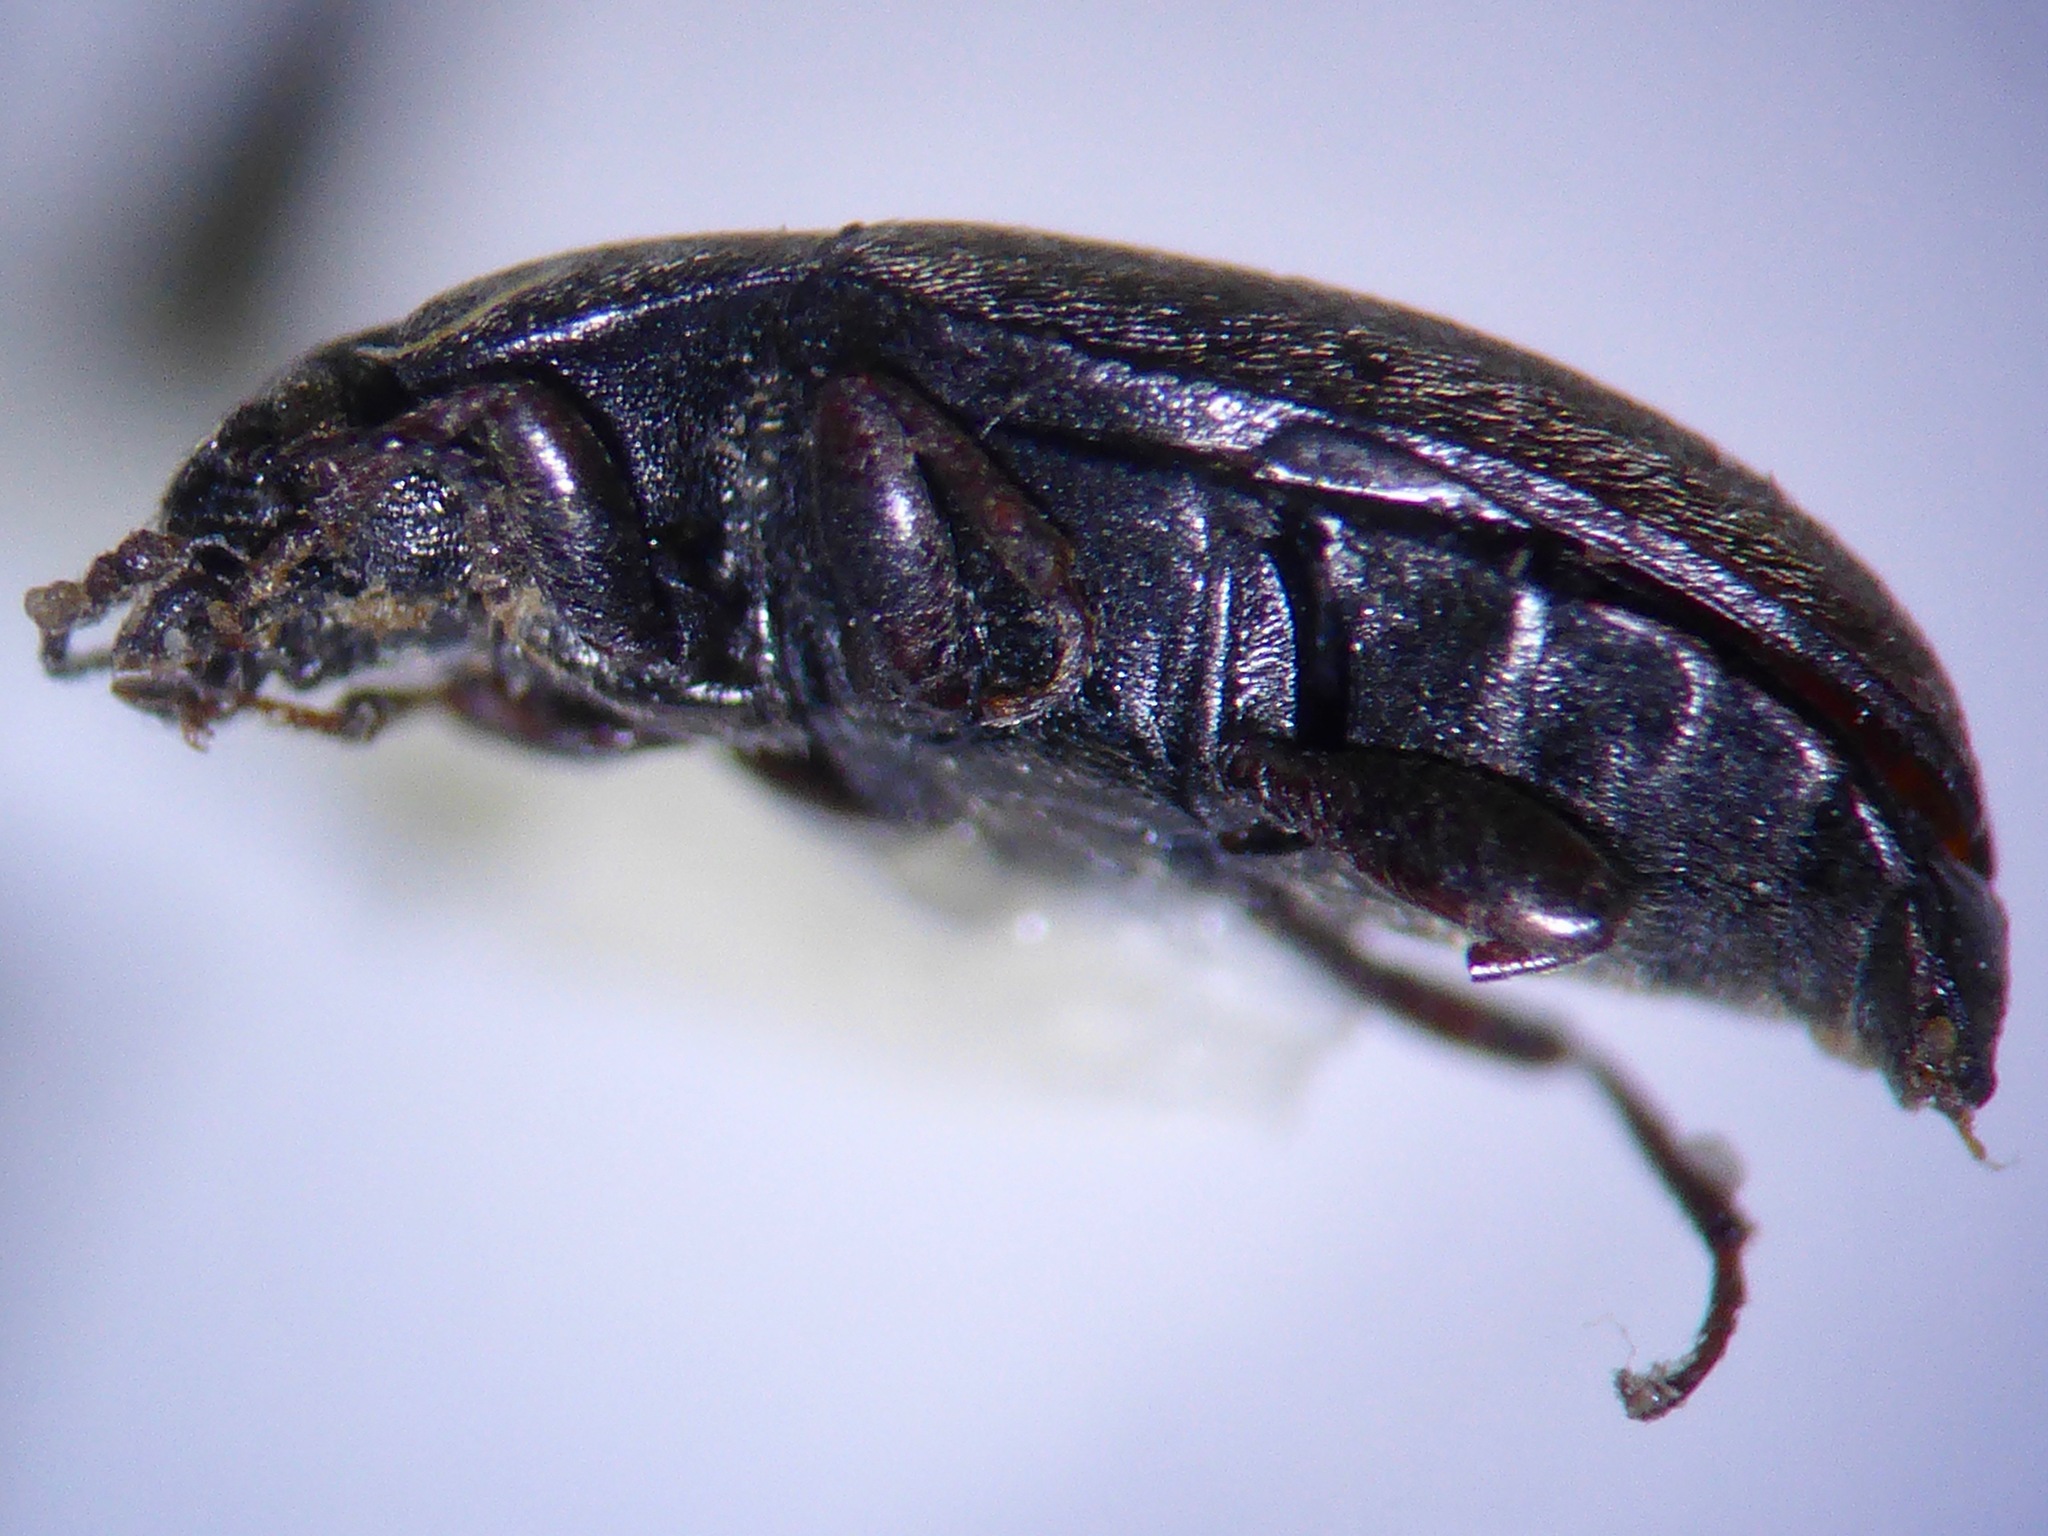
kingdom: Animalia
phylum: Arthropoda
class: Insecta
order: Coleoptera
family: Archeocrypticidae
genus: Enneboeus
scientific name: Enneboeus
